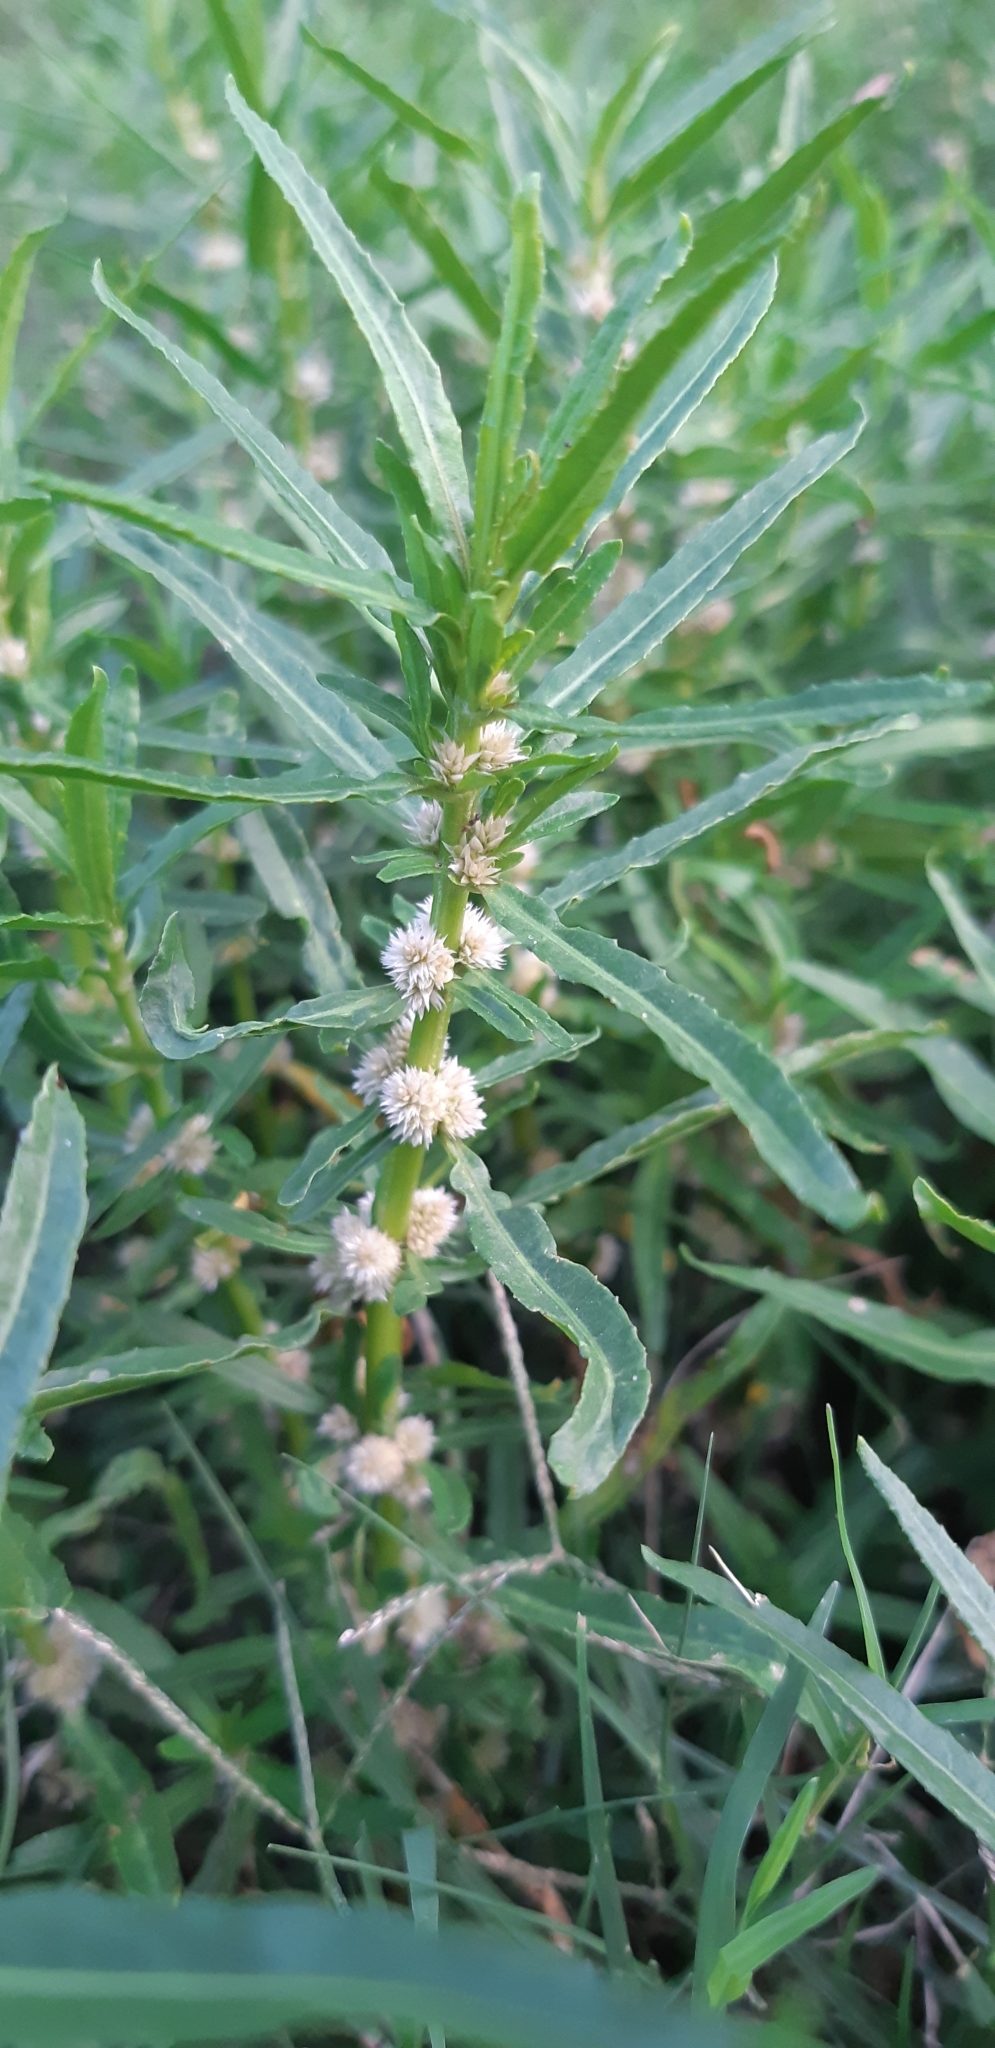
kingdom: Plantae
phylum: Tracheophyta
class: Magnoliopsida
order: Caryophyllales
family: Amaranthaceae
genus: Alternanthera
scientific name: Alternanthera sessilis
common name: Sessile joyweed
